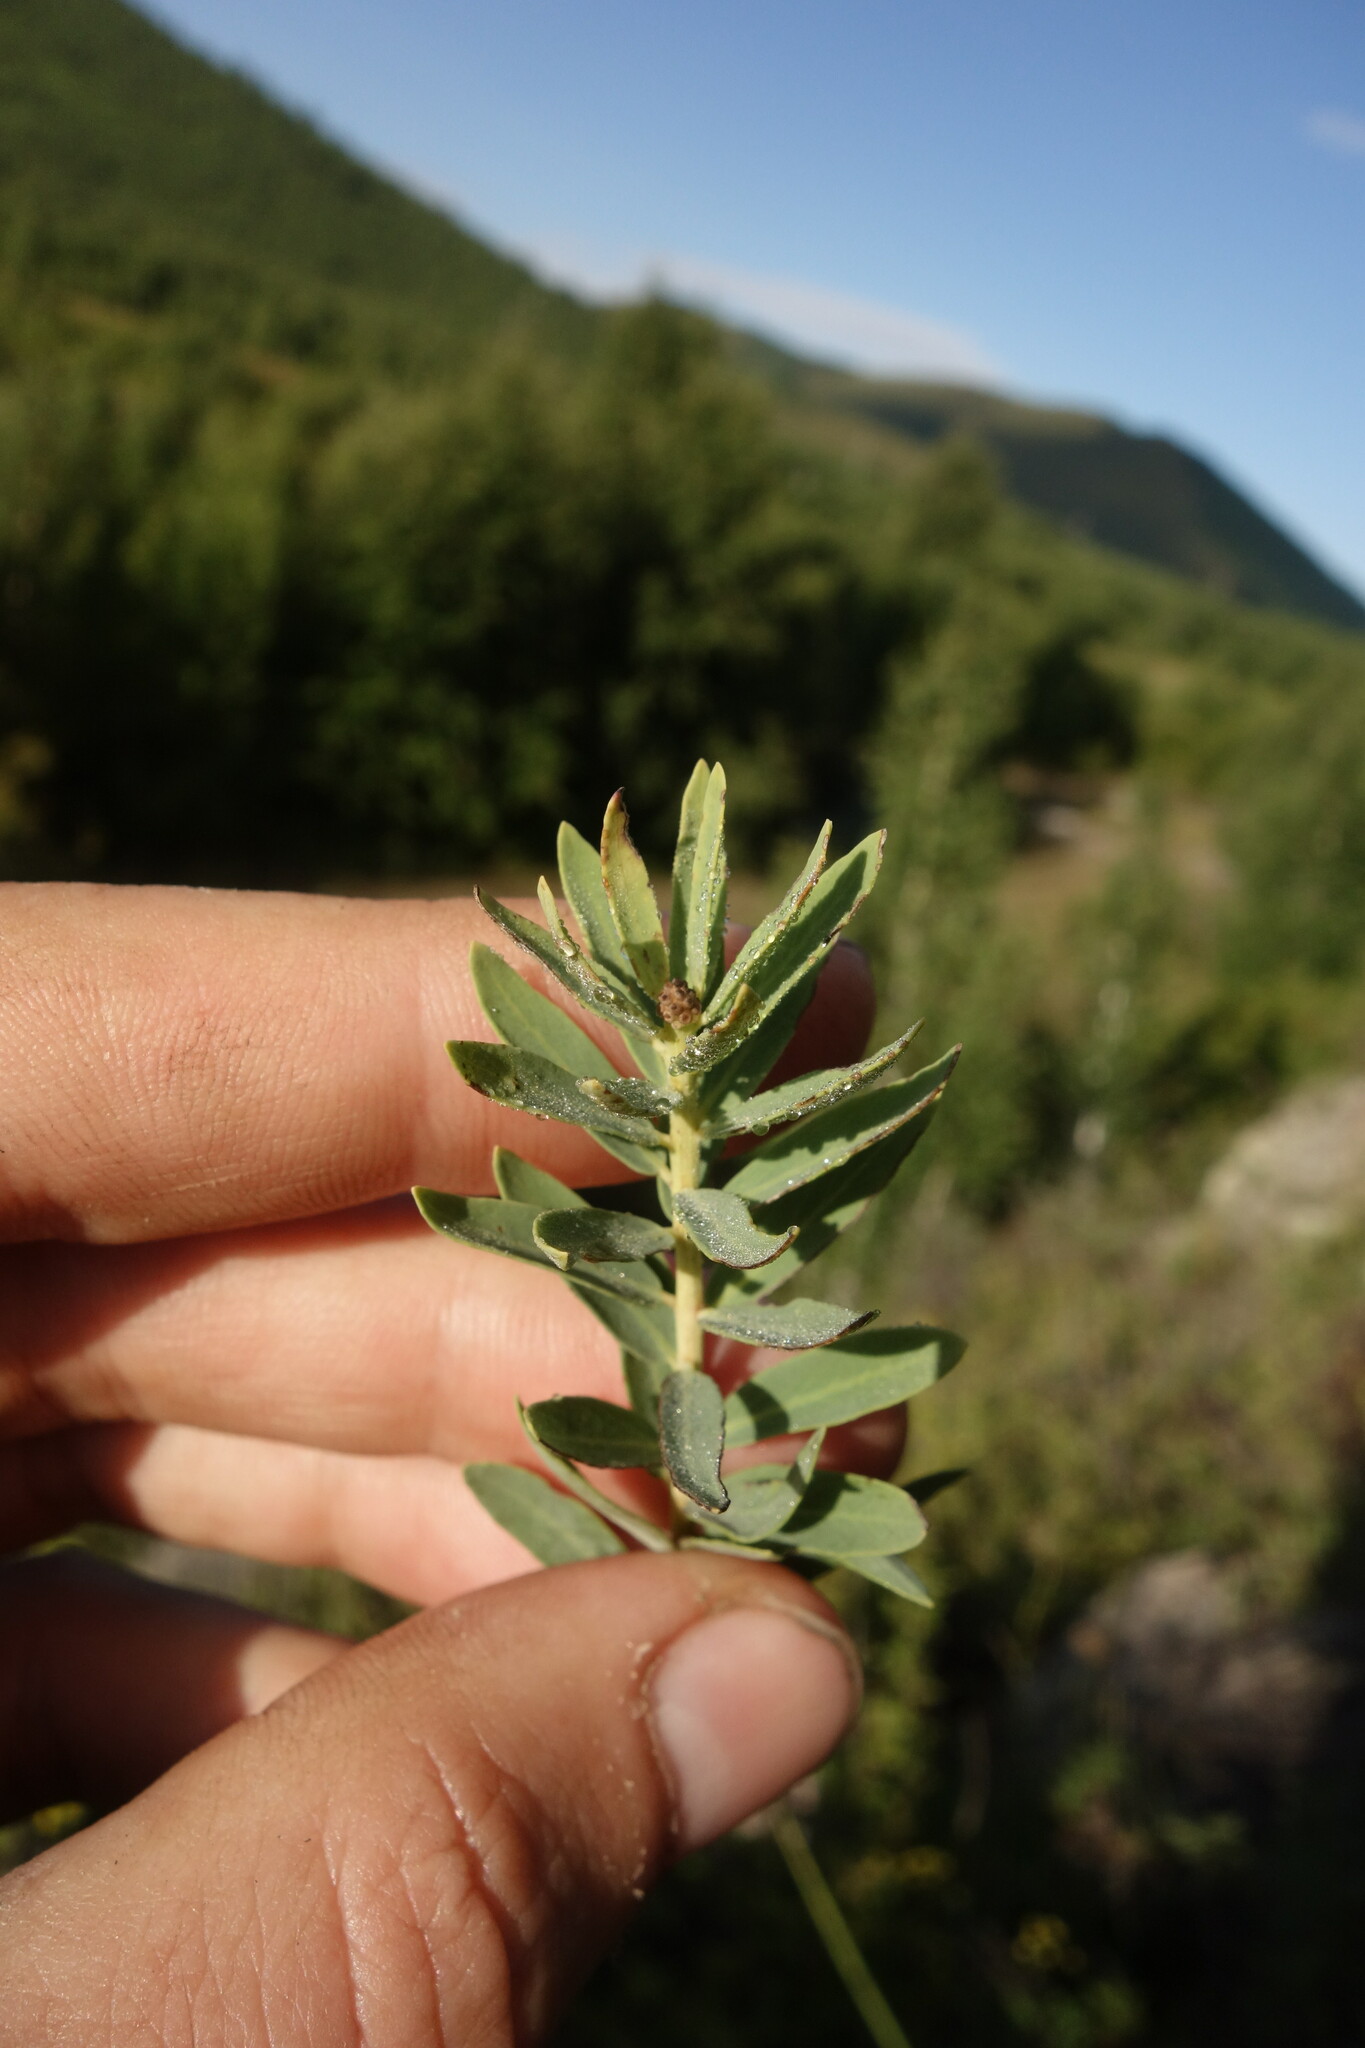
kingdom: Plantae
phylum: Tracheophyta
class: Magnoliopsida
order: Malvales
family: Thymelaeaceae
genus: Stellera
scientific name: Stellera chamaejasme
